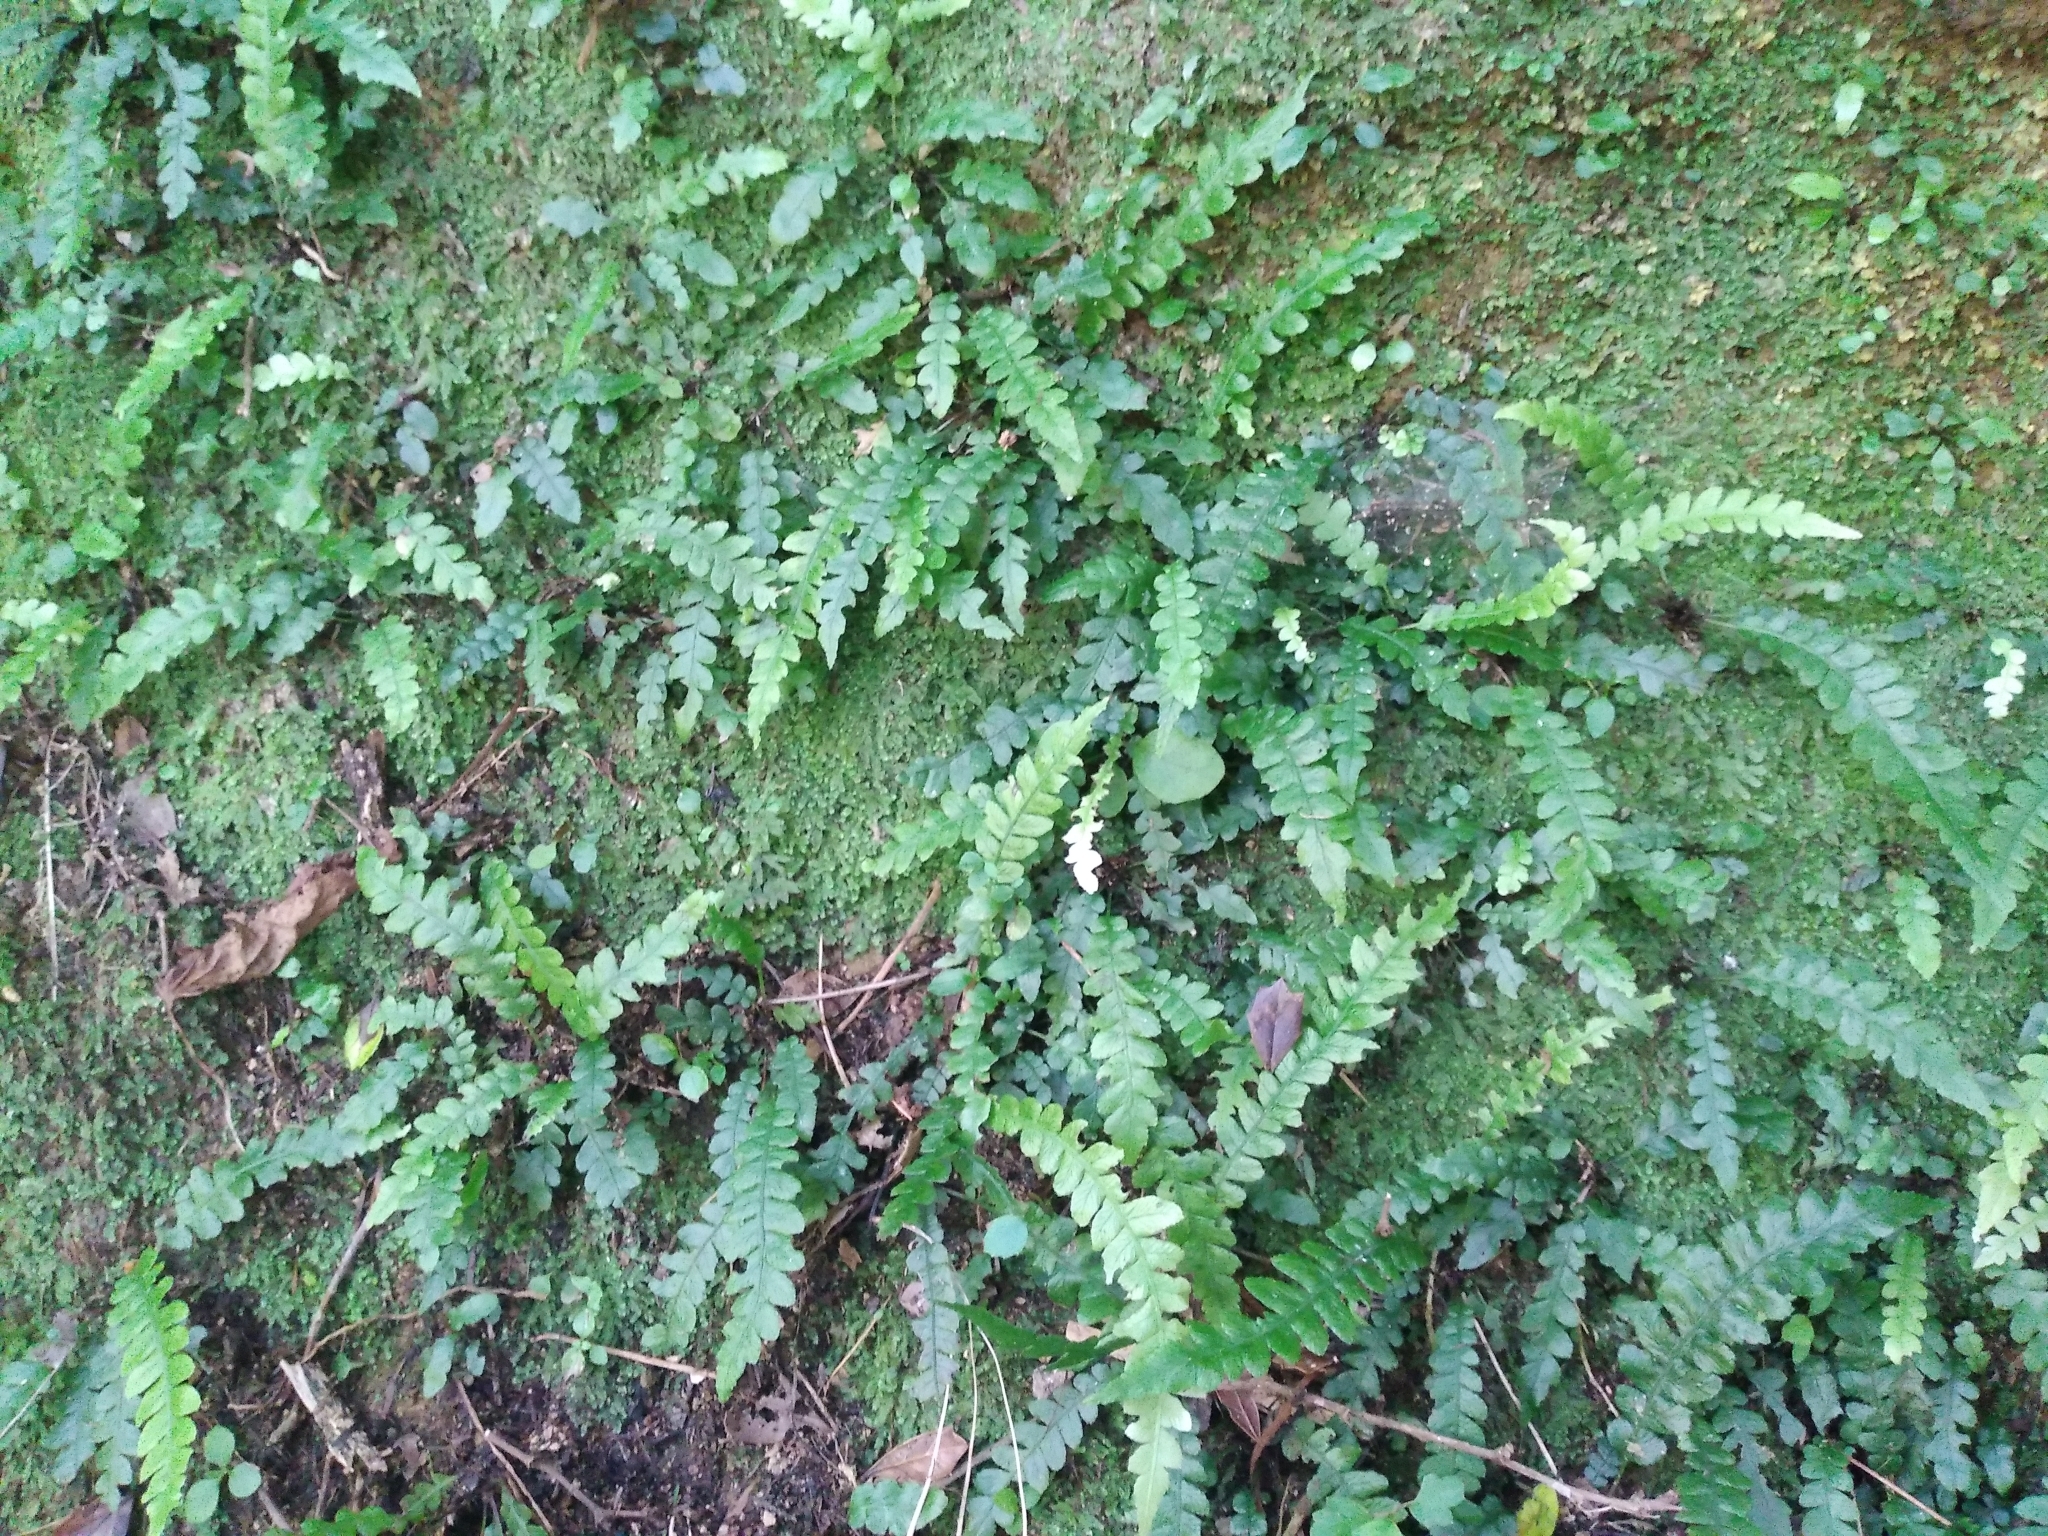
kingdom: Plantae
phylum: Tracheophyta
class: Polypodiopsida
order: Polypodiales
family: Blechnaceae
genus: Austroblechnum
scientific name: Austroblechnum lanceolatum
